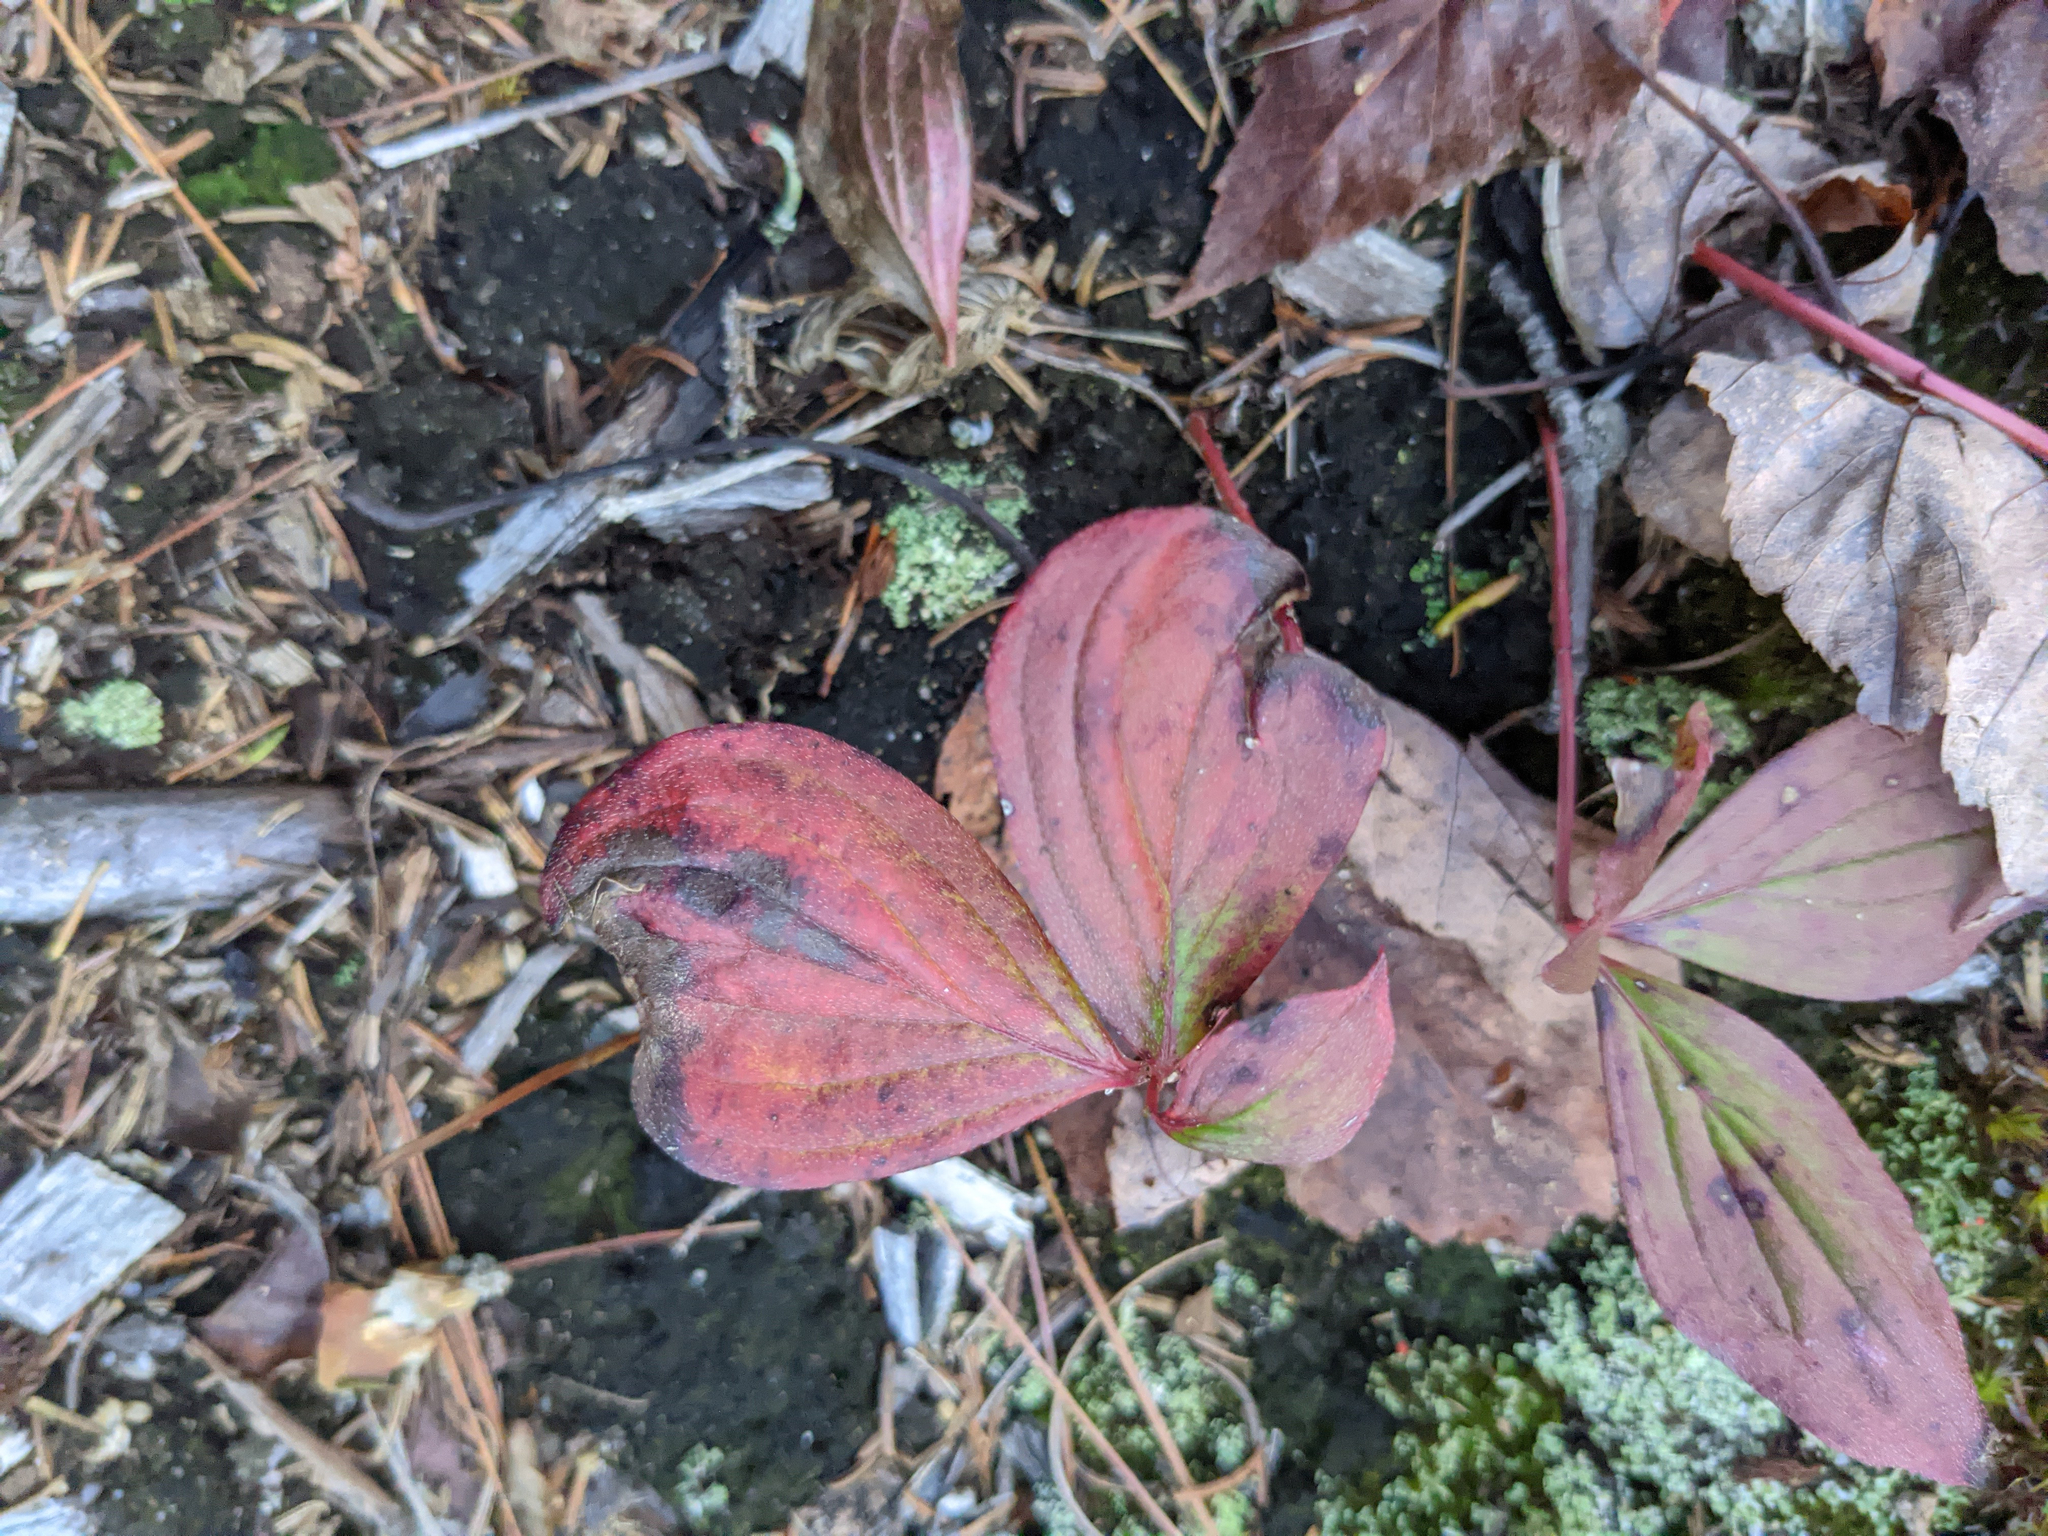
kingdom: Plantae
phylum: Tracheophyta
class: Magnoliopsida
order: Cornales
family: Cornaceae
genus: Cornus
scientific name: Cornus canadensis
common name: Creeping dogwood
